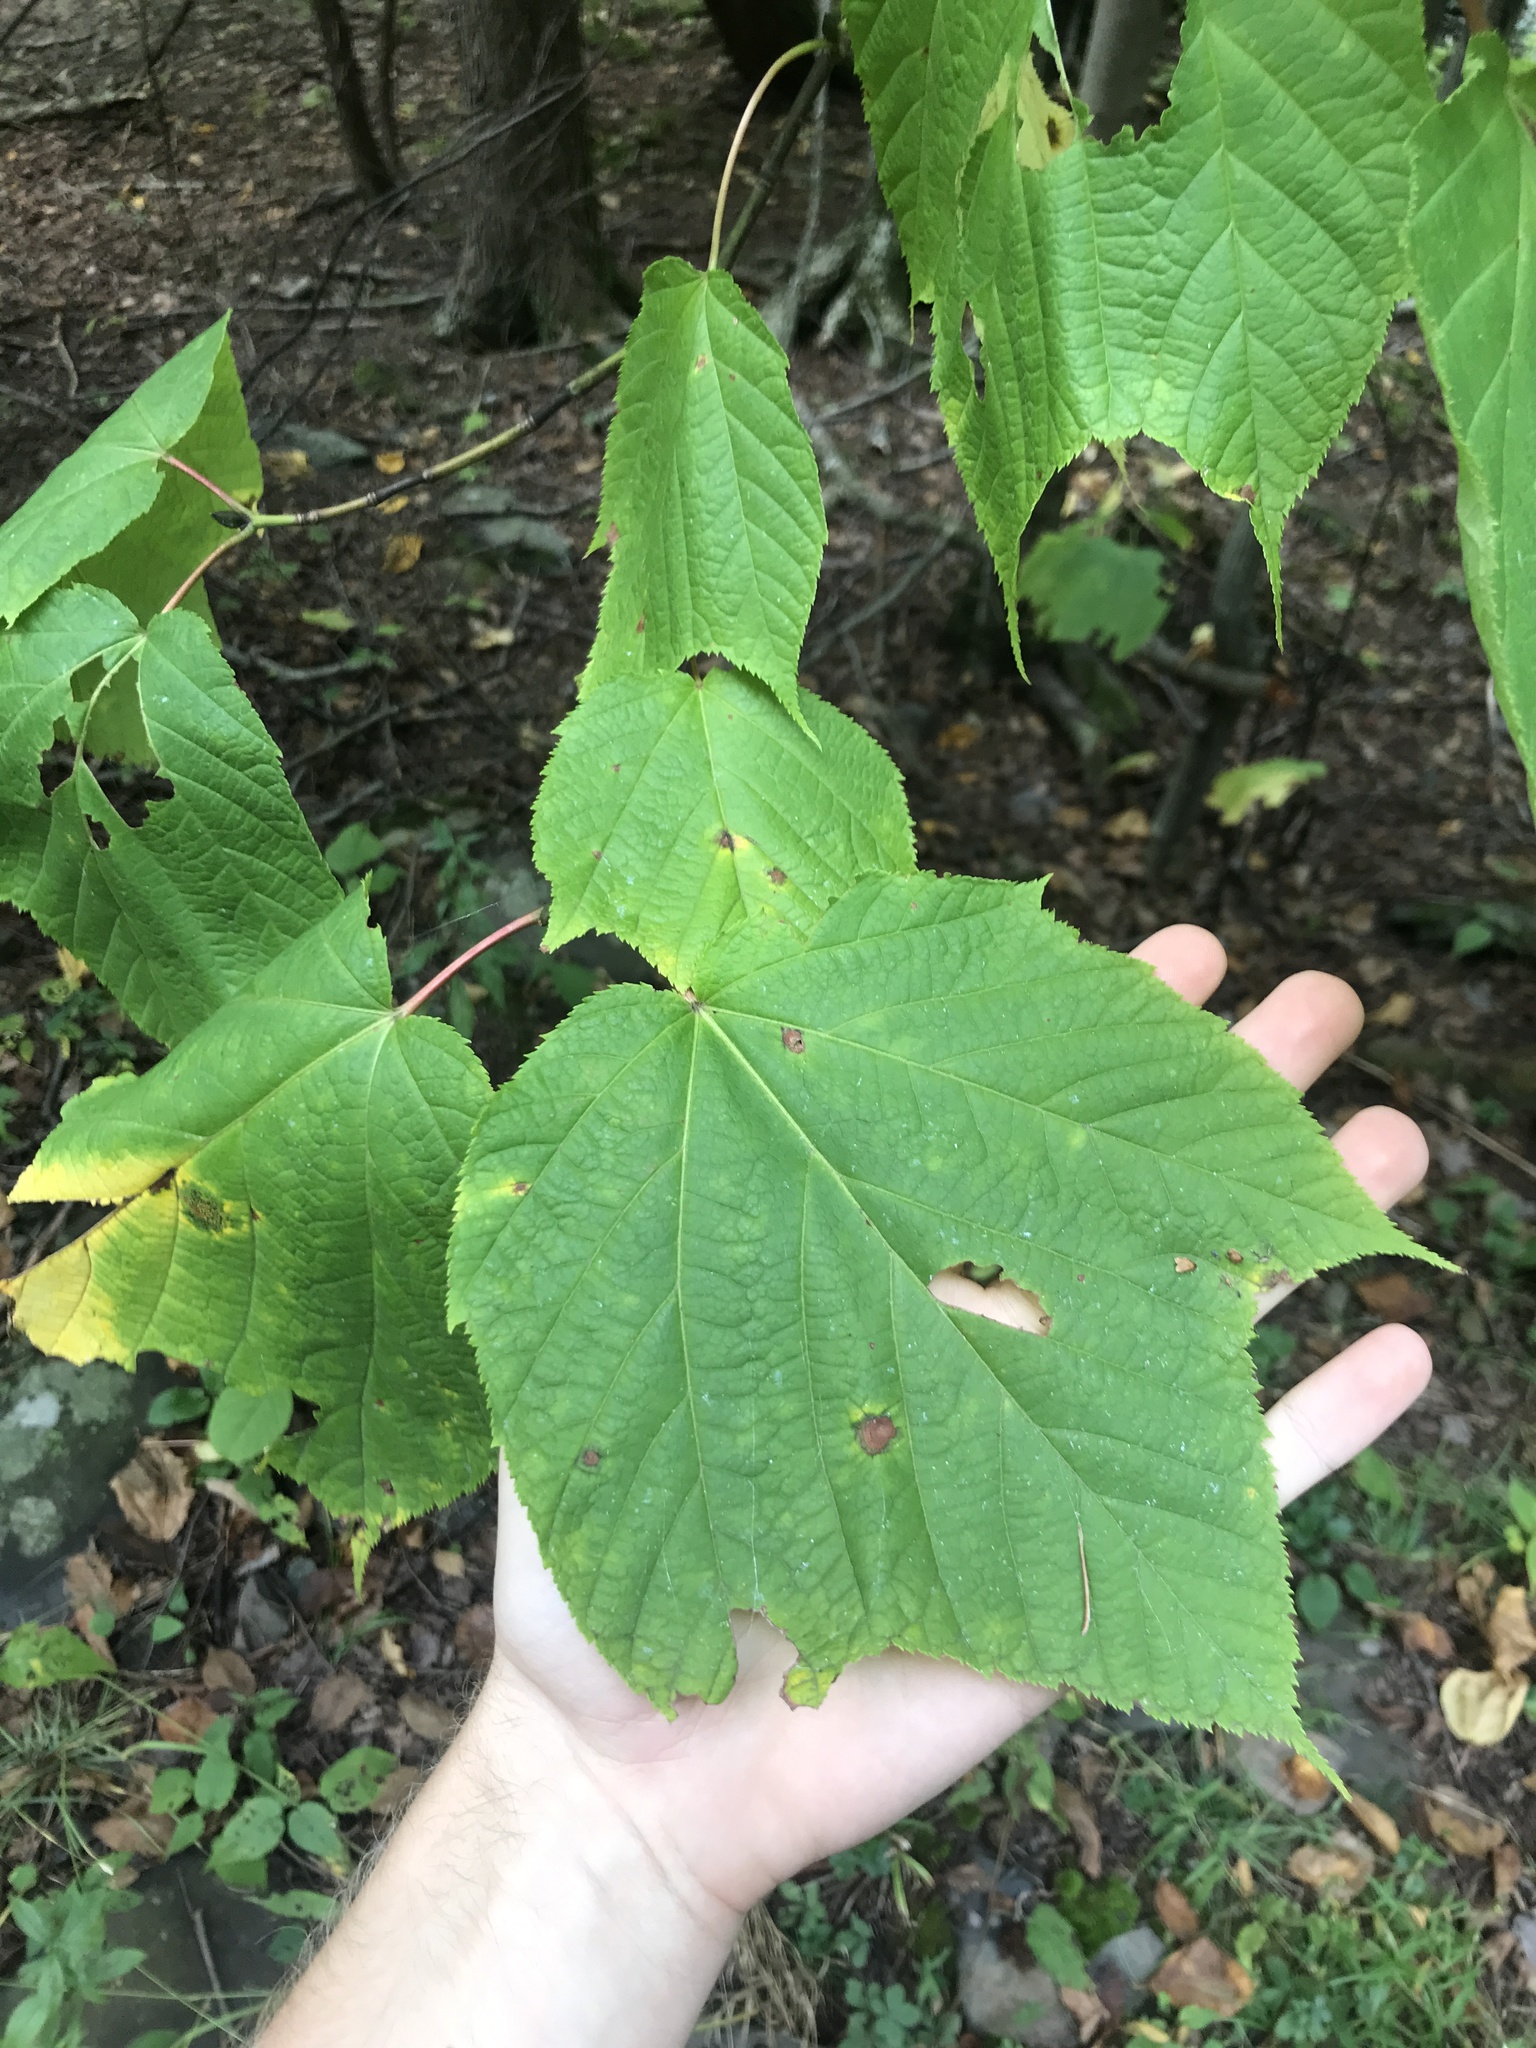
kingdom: Plantae
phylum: Tracheophyta
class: Magnoliopsida
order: Sapindales
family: Sapindaceae
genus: Acer
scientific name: Acer pensylvanicum
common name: Moosewood
